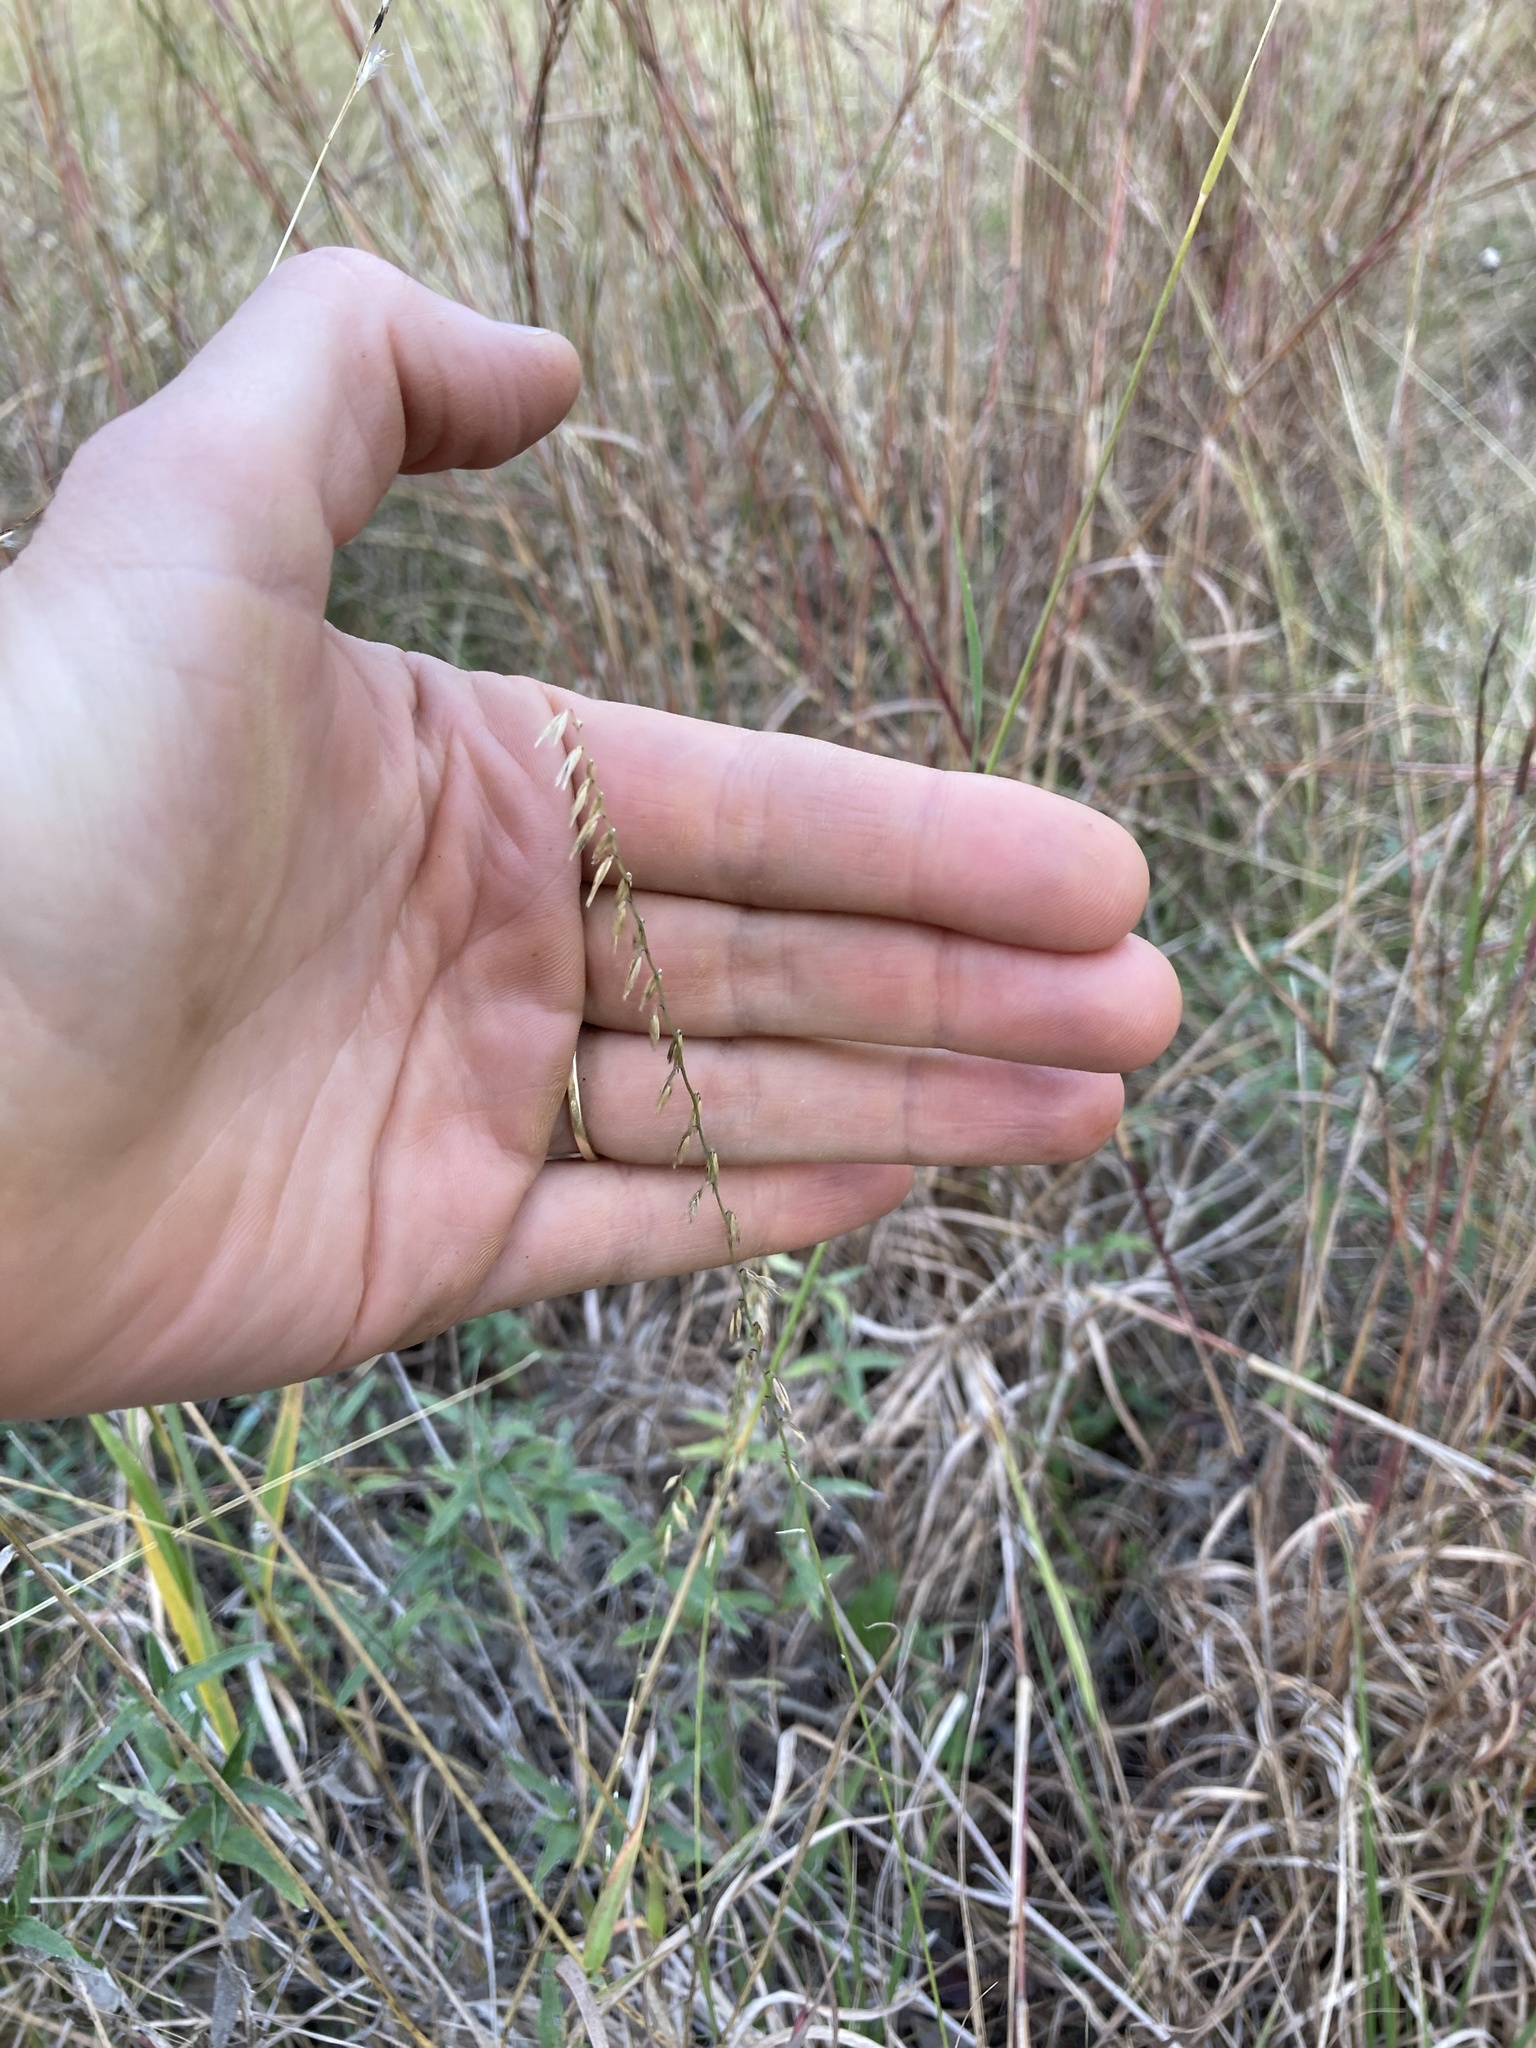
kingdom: Plantae
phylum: Tracheophyta
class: Liliopsida
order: Poales
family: Poaceae
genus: Bouteloua
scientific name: Bouteloua curtipendula
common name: Side-oats grama
